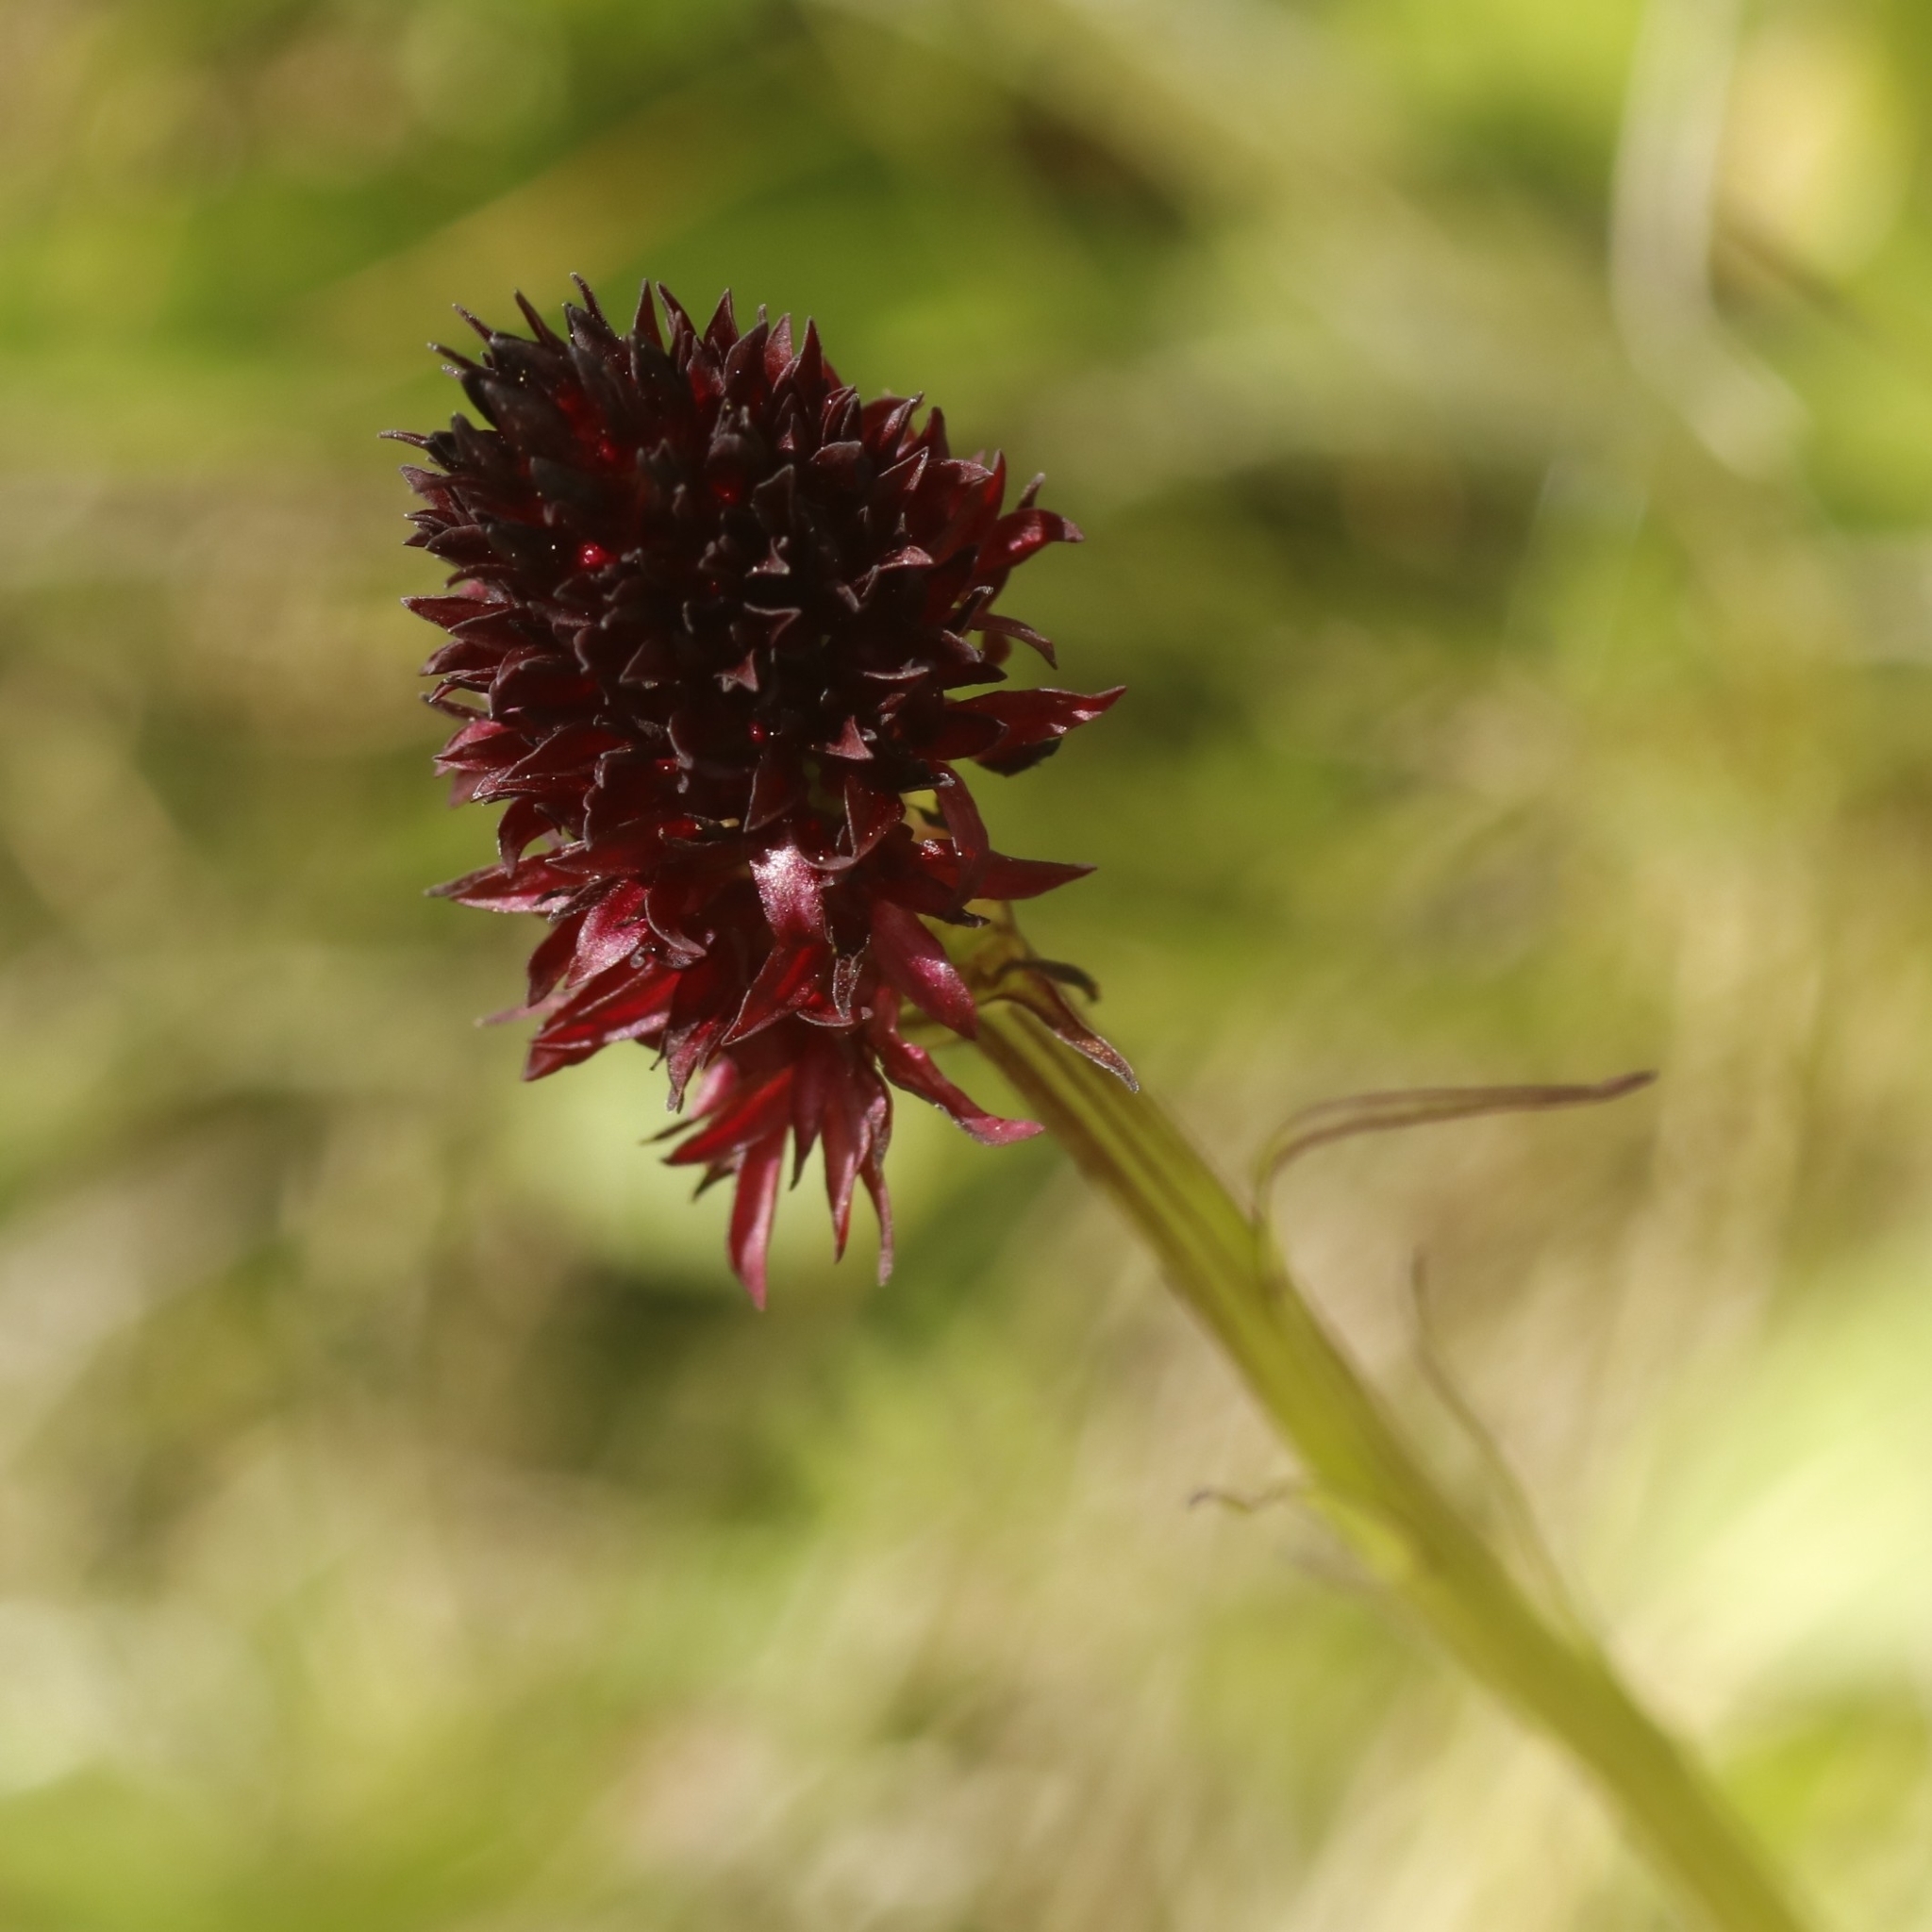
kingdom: Plantae
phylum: Tracheophyta
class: Liliopsida
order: Asparagales
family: Orchidaceae
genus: Gymnadenia
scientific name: Gymnadenia rhellicani
